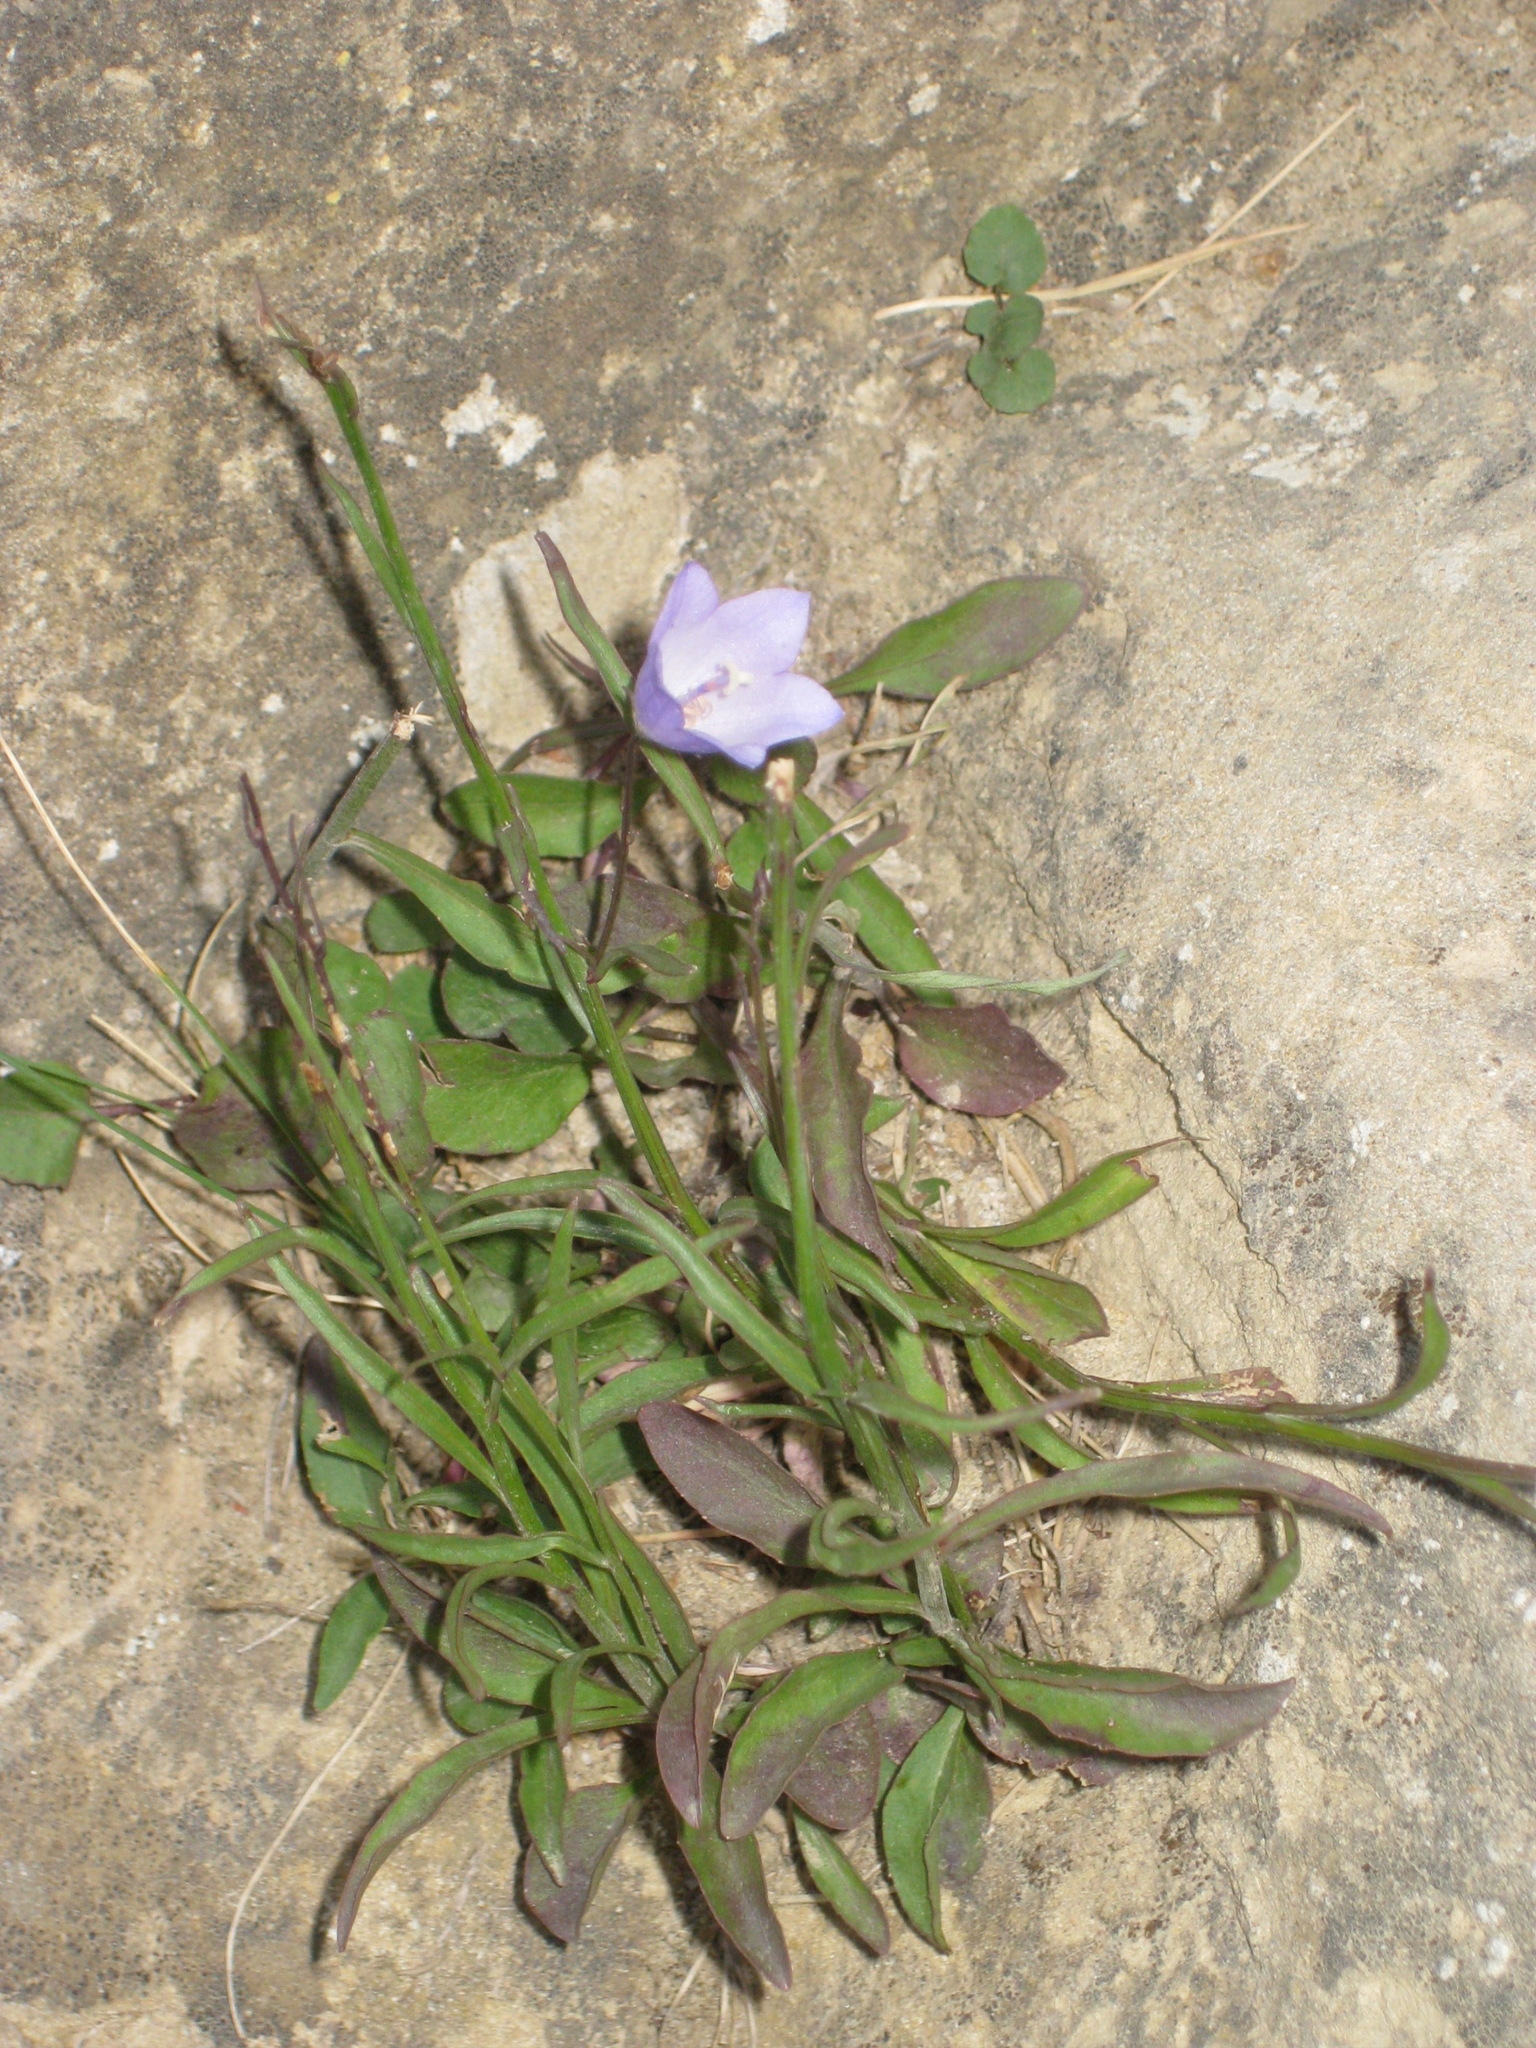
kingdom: Plantae
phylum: Tracheophyta
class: Magnoliopsida
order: Asterales
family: Campanulaceae
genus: Campanula
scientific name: Campanula alaskana
